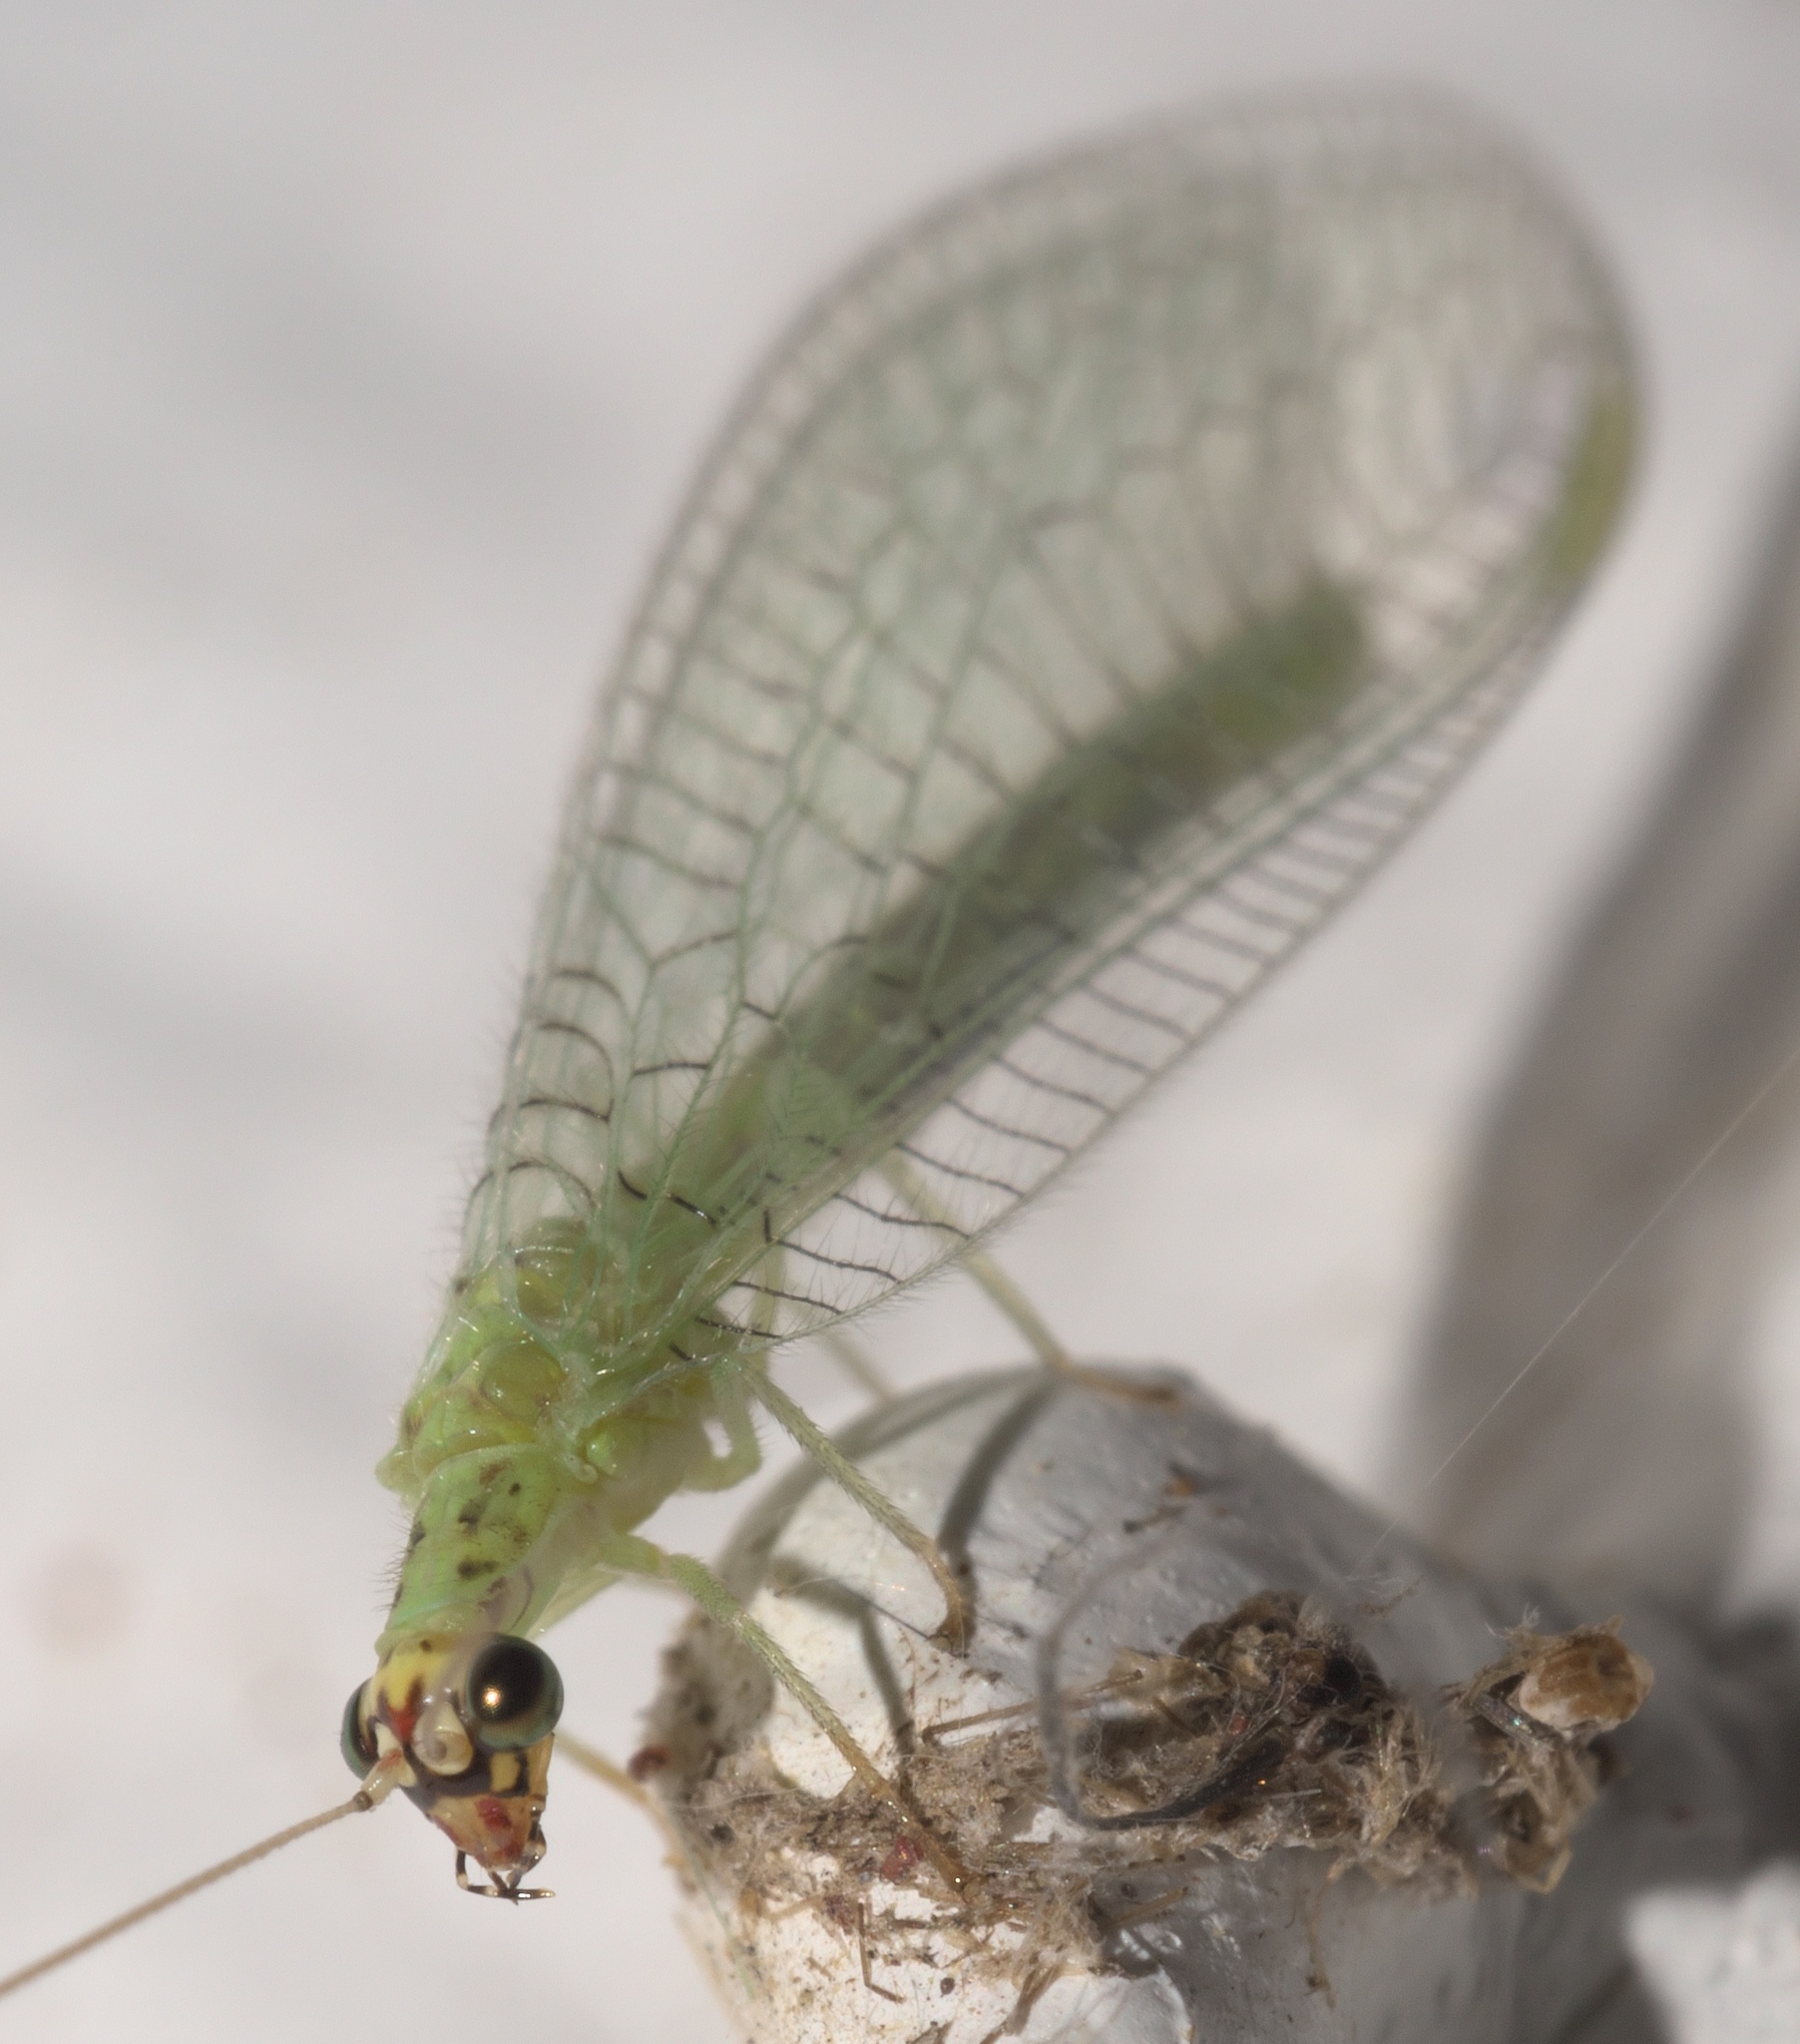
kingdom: Animalia
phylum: Arthropoda
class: Insecta
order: Neuroptera
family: Chrysopidae
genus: Chrysopa
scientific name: Chrysopa oculata
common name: Golden-eyed lacewing
